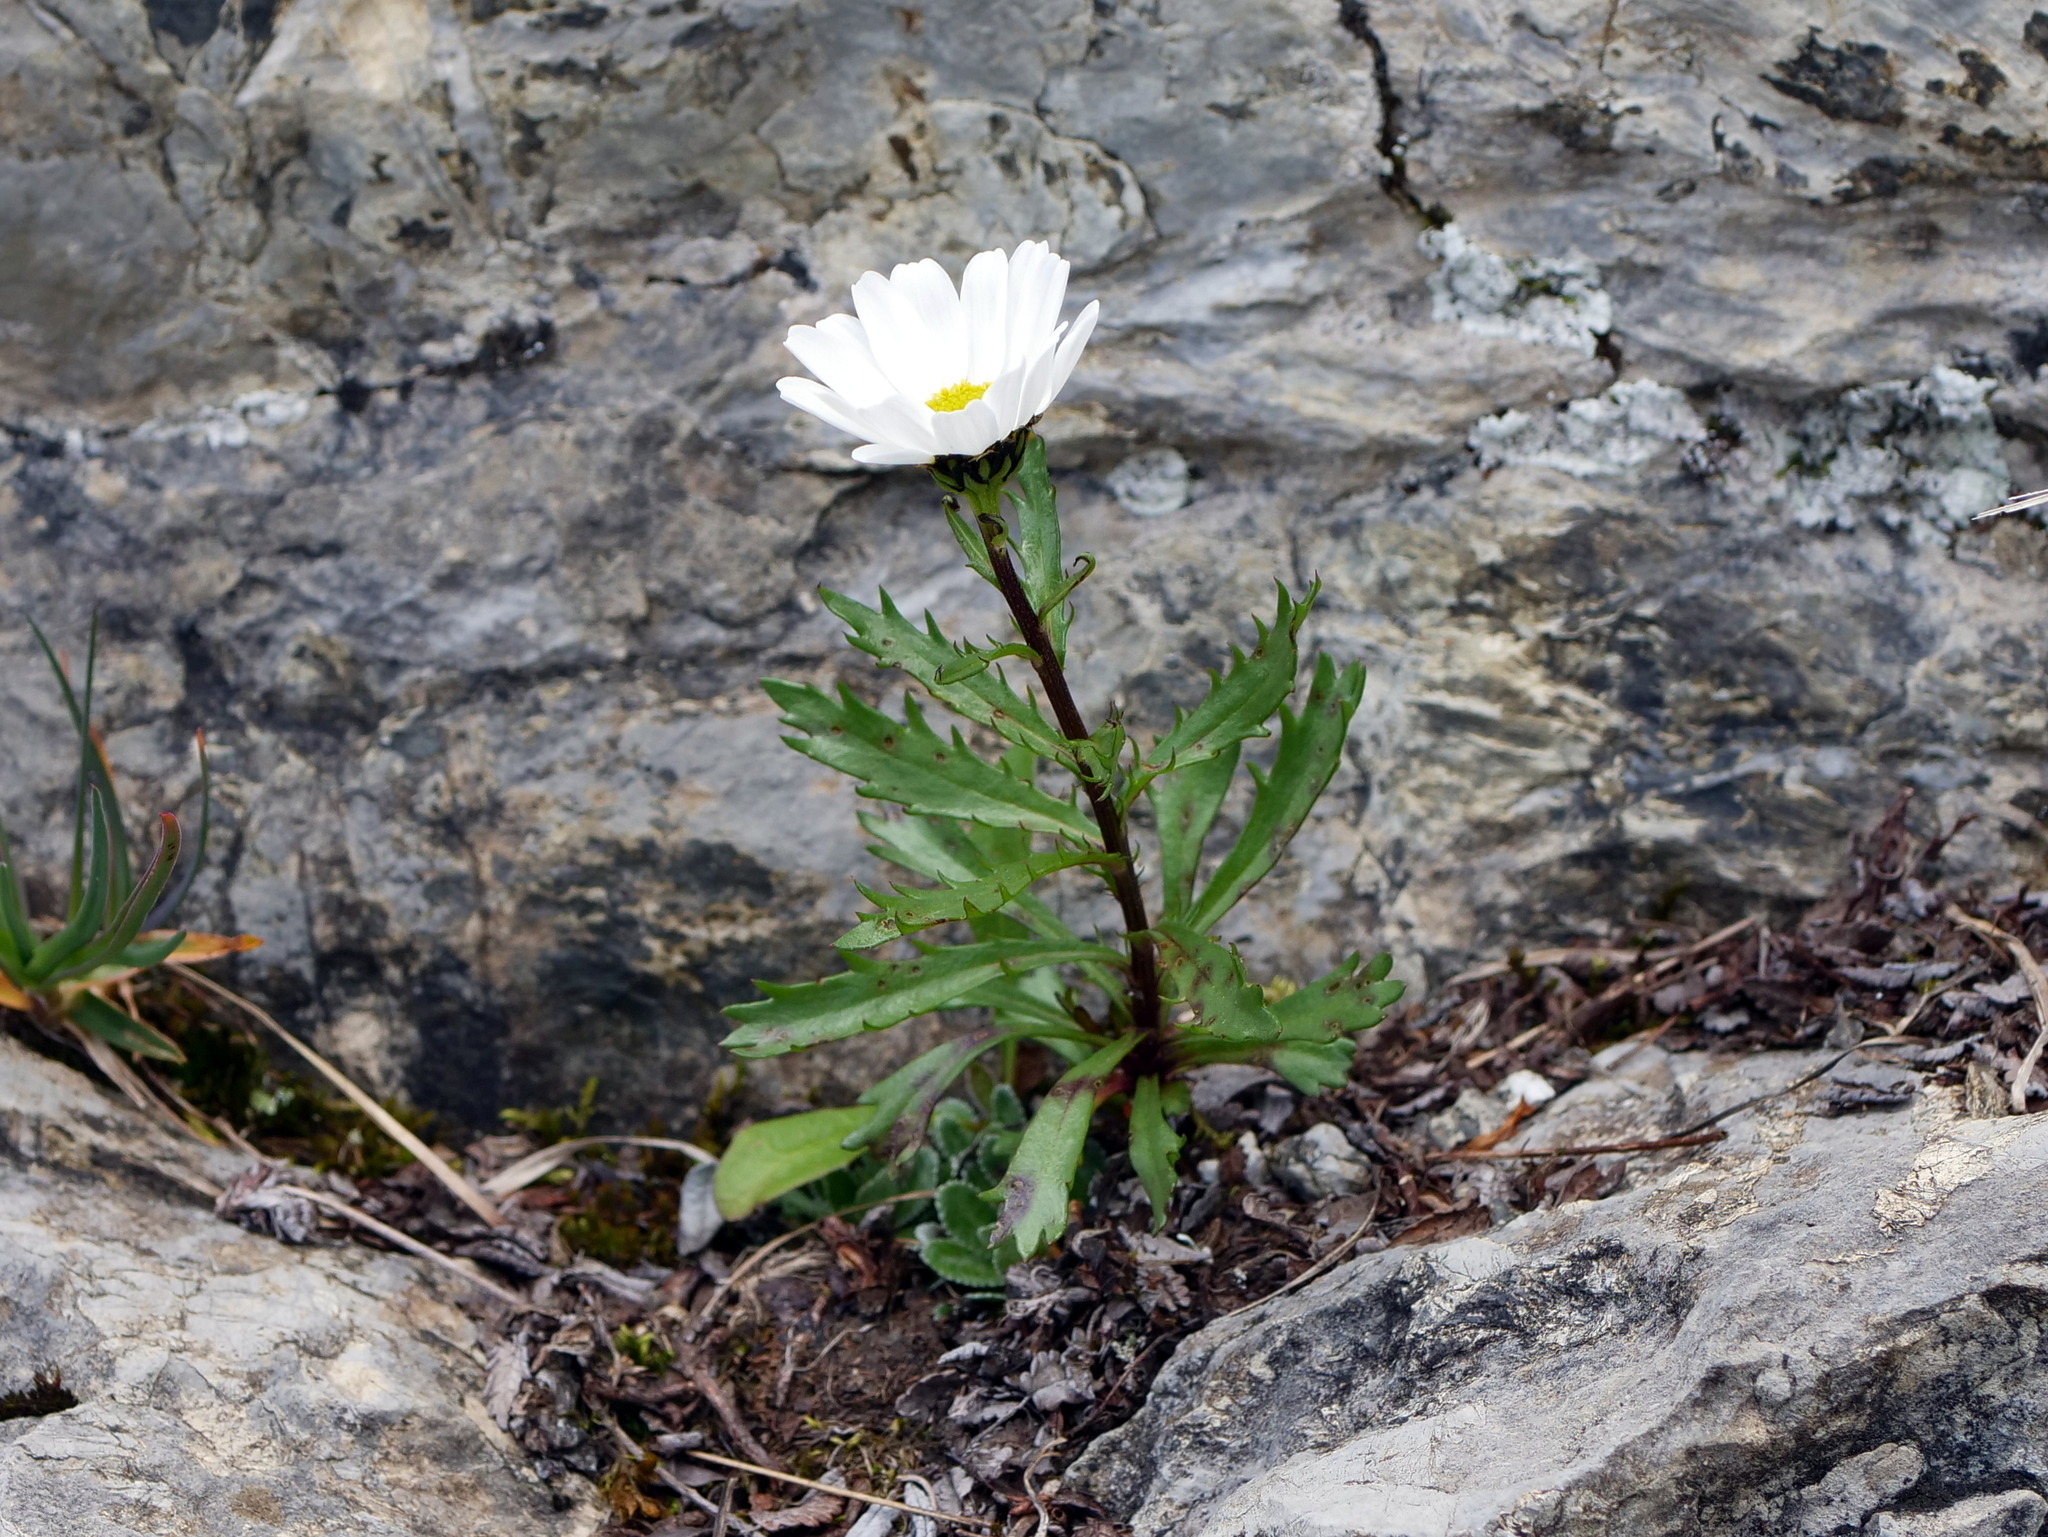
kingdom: Plantae
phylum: Tracheophyta
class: Magnoliopsida
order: Asterales
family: Asteraceae
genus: Leucanthemum
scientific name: Leucanthemum halleri
